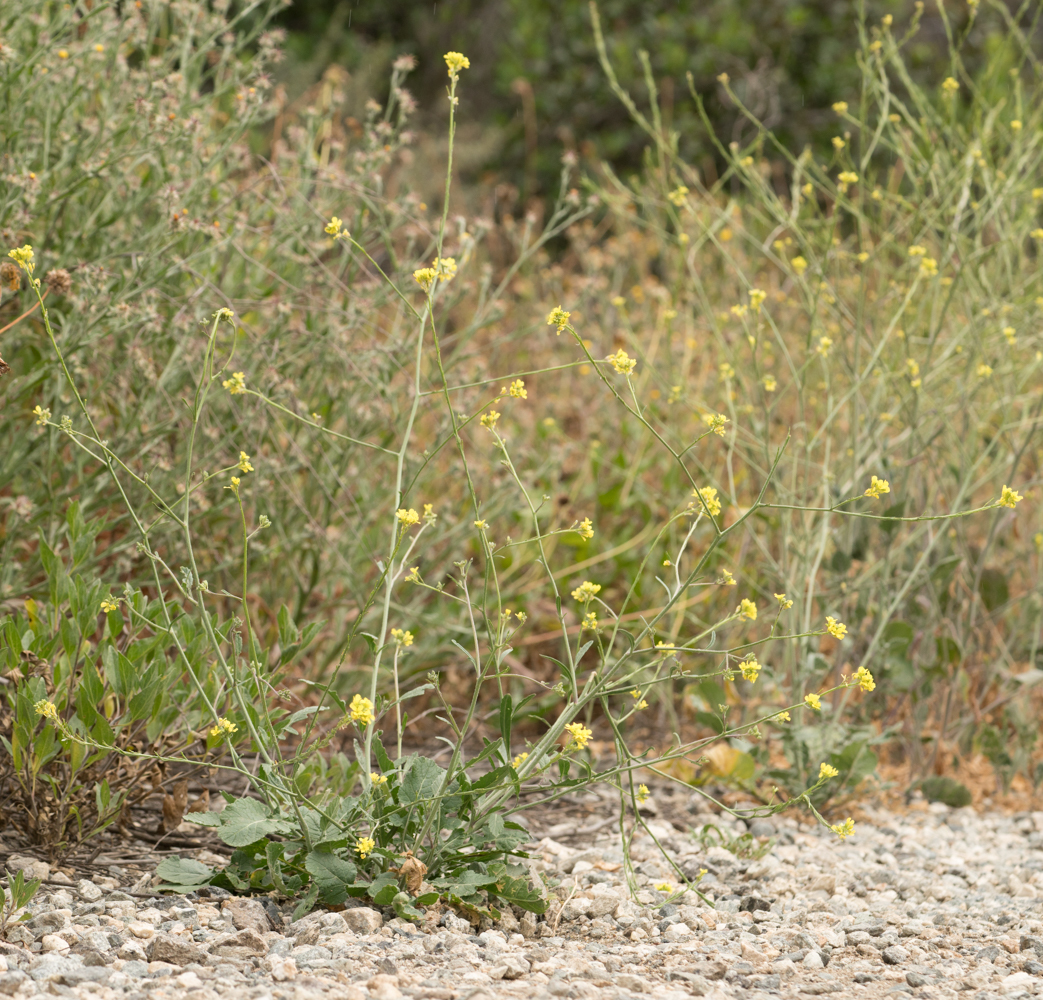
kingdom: Plantae
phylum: Tracheophyta
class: Magnoliopsida
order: Brassicales
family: Brassicaceae
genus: Hirschfeldia
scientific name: Hirschfeldia incana
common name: Hoary mustard
